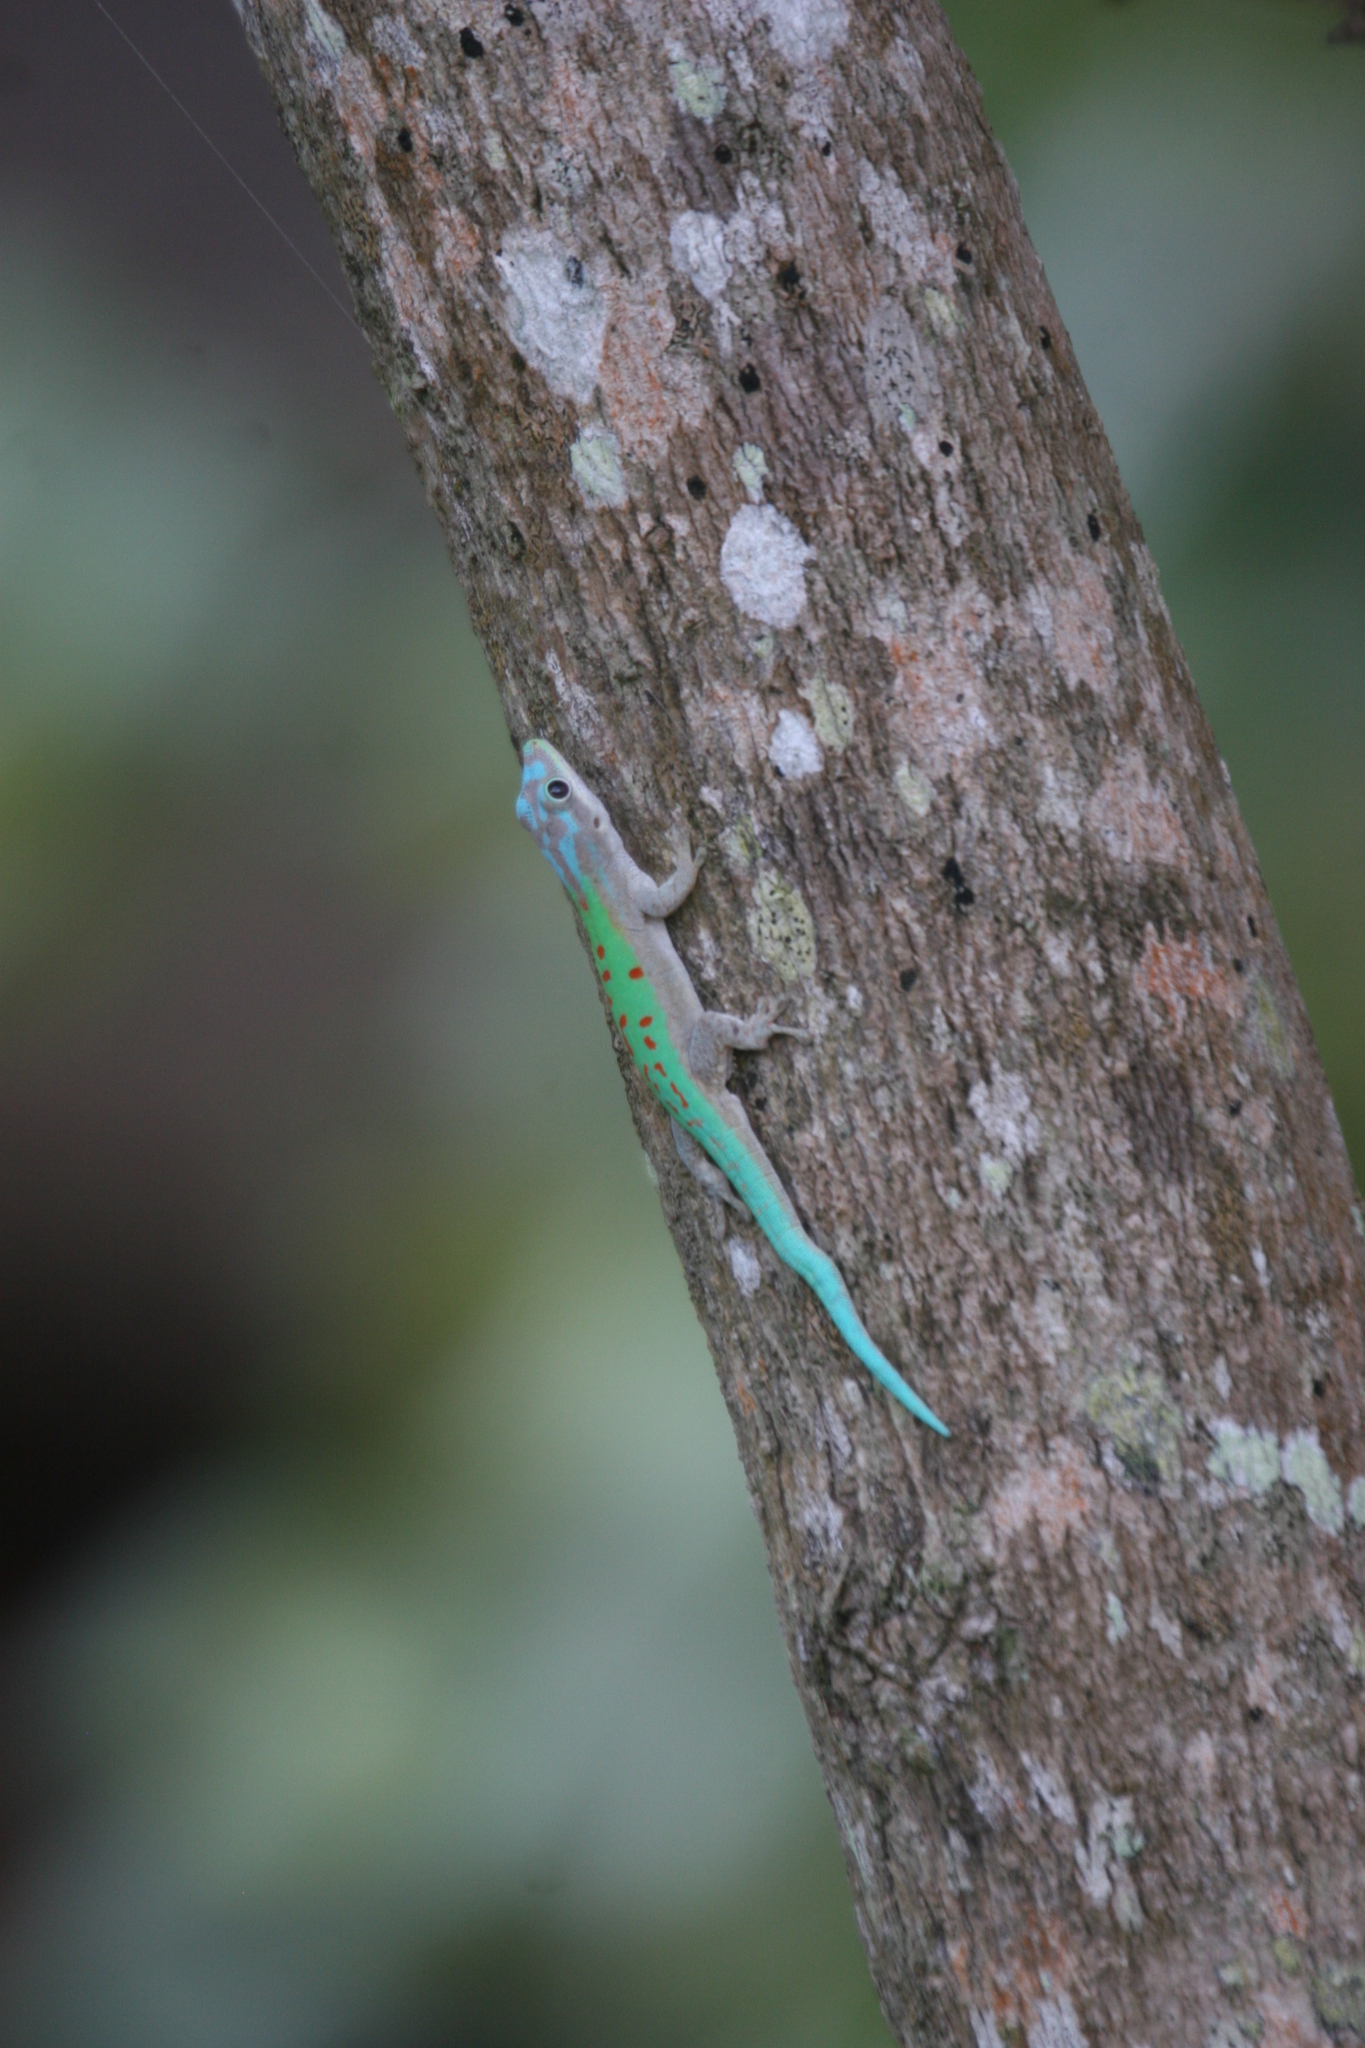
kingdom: Animalia
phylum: Chordata
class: Squamata
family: Gekkonidae
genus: Phelsuma
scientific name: Phelsuma modesta
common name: Modest day gecko
